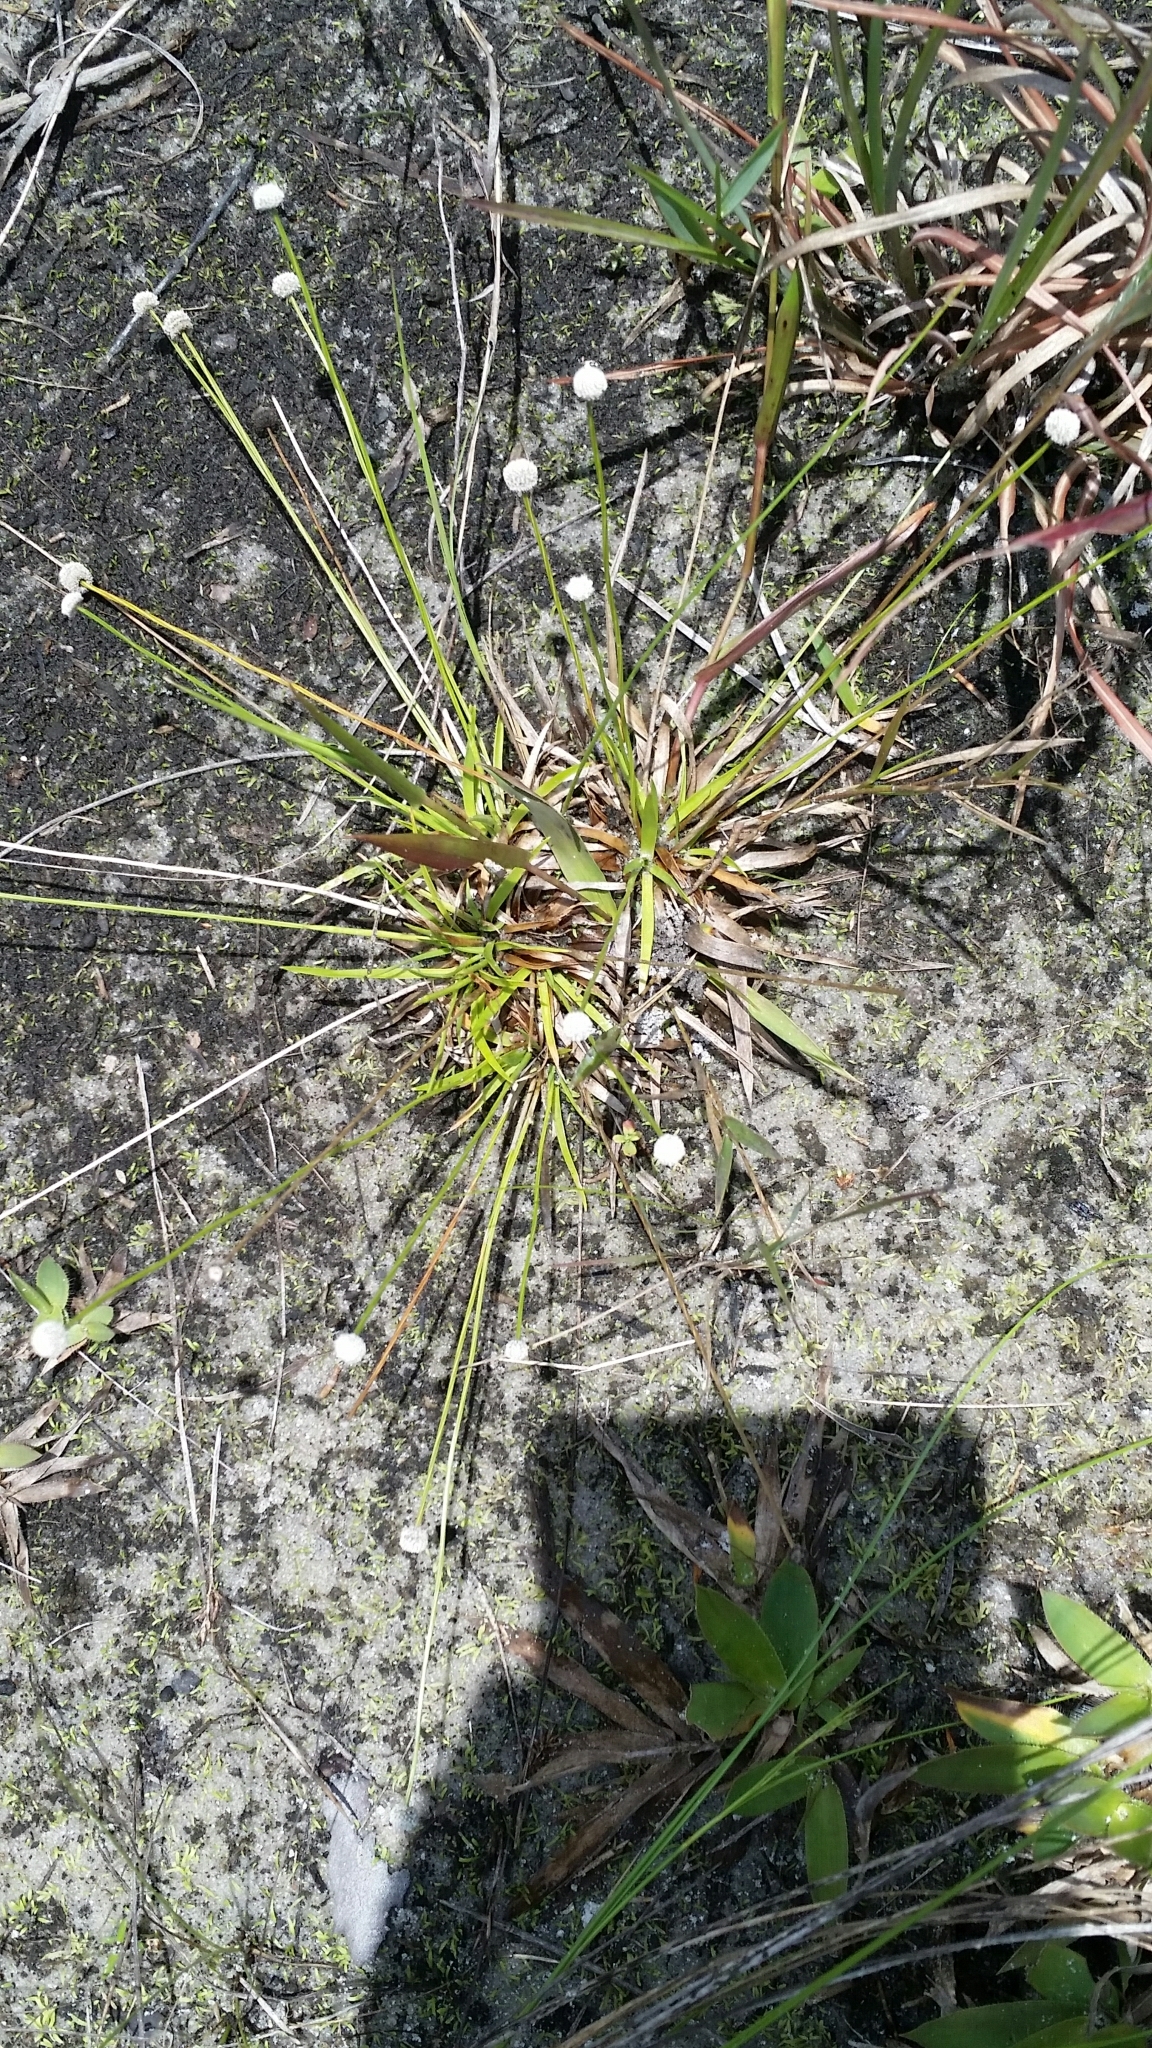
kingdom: Plantae
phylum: Tracheophyta
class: Liliopsida
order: Poales
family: Eriocaulaceae
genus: Paepalanthus
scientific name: Paepalanthus anceps
